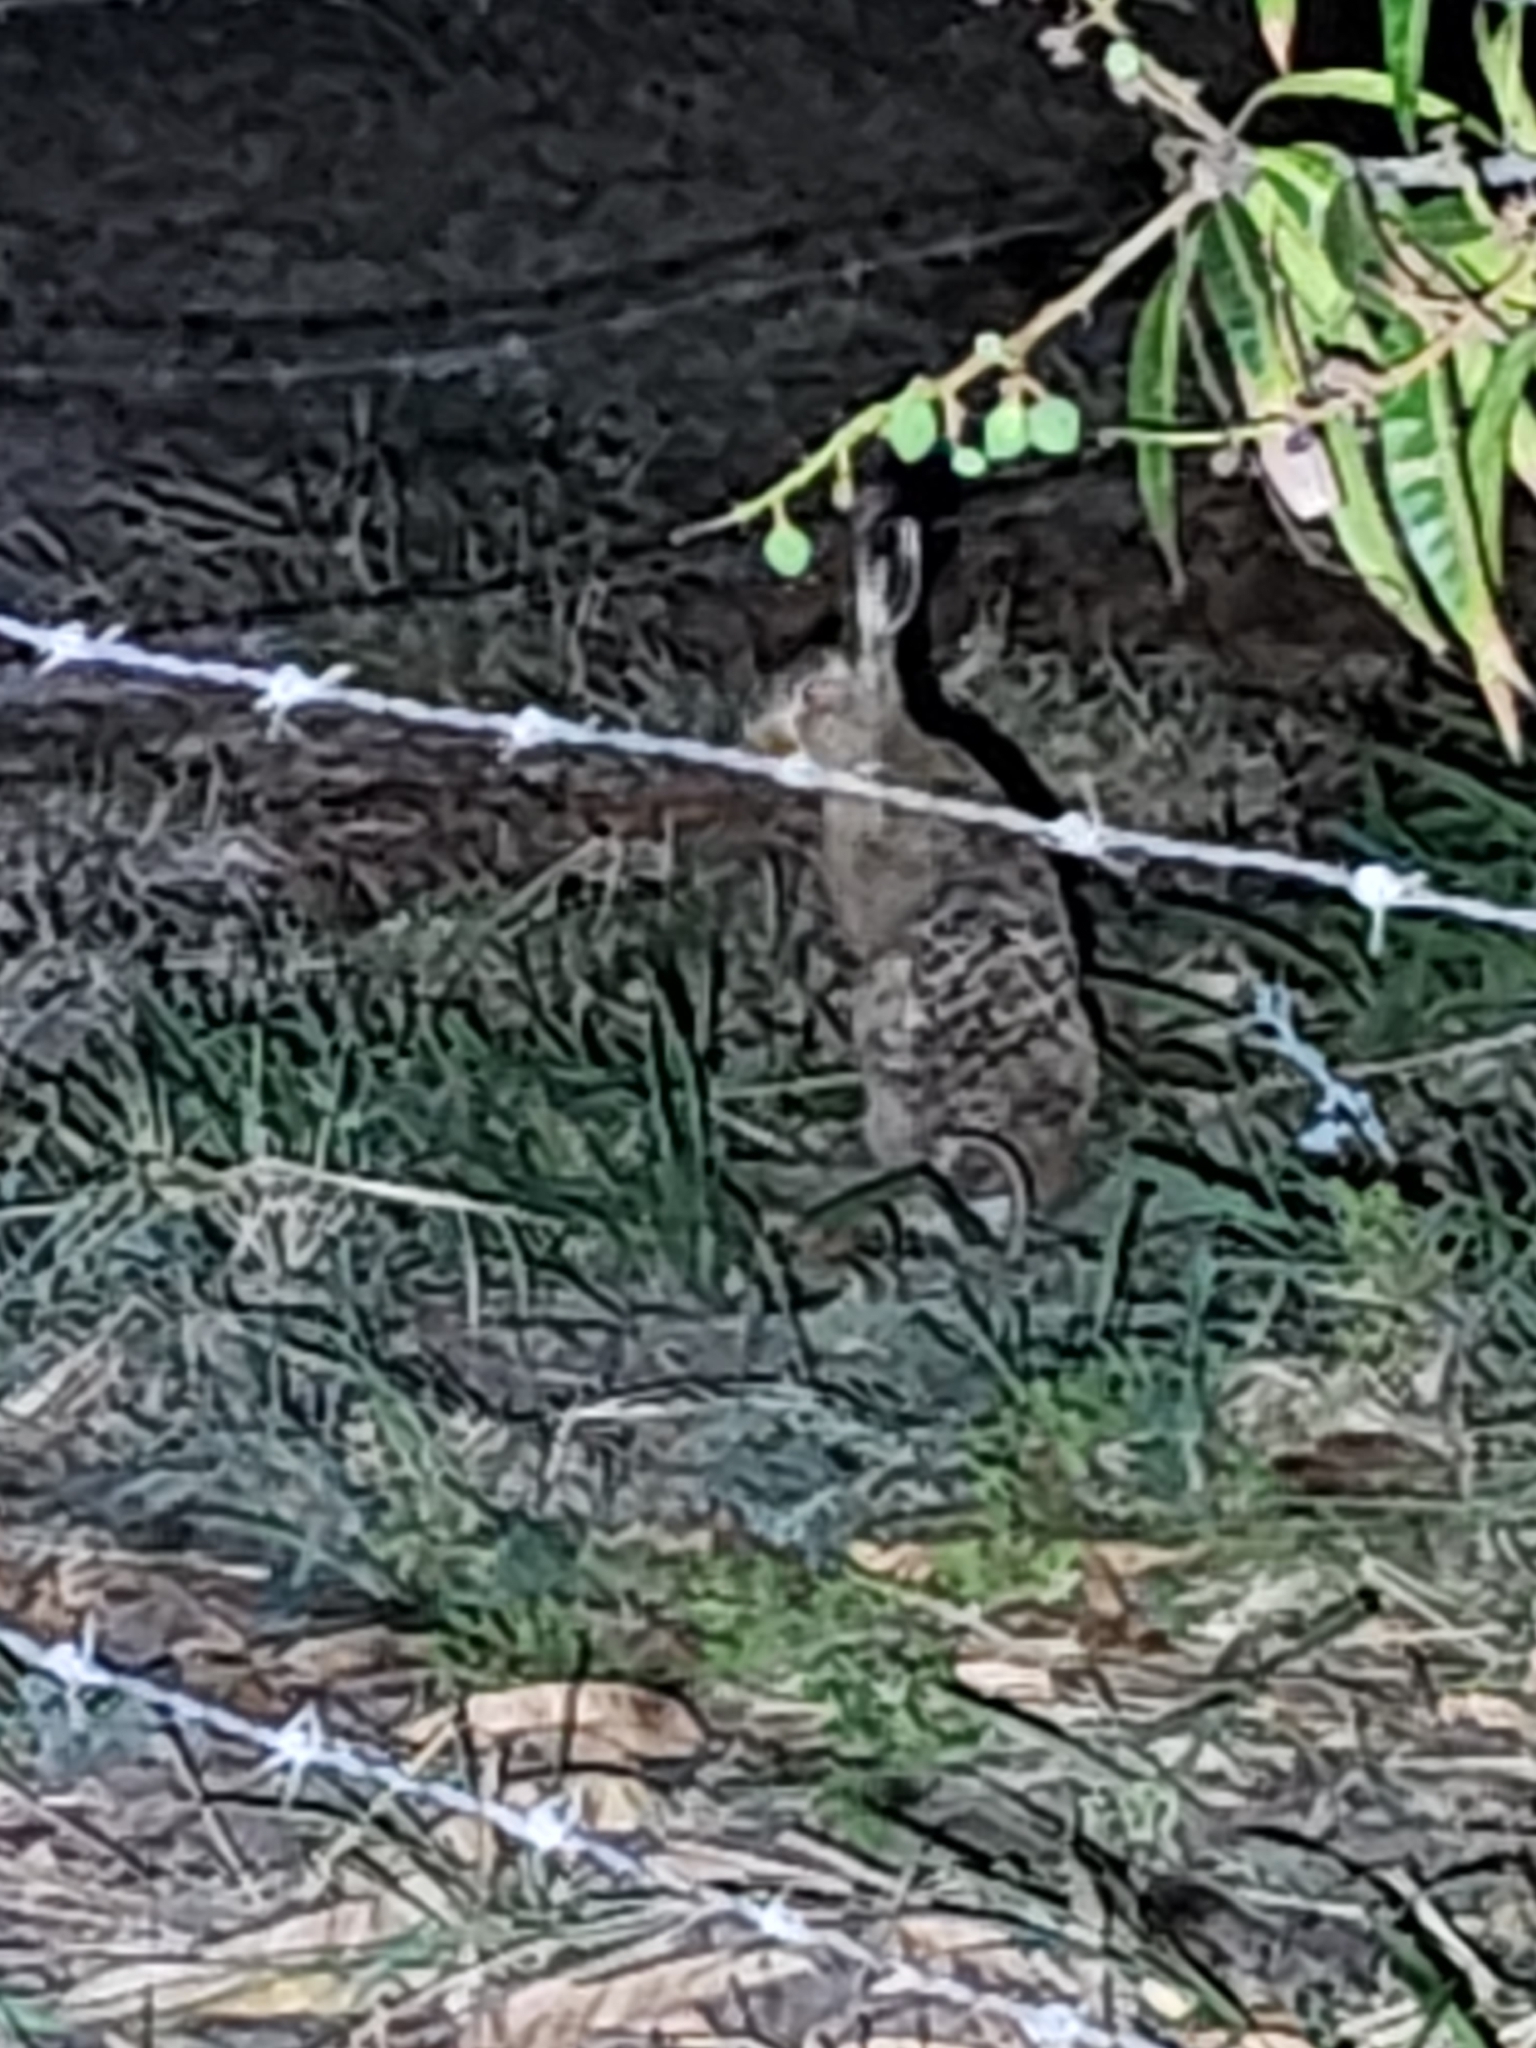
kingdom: Animalia
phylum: Chordata
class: Mammalia
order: Lagomorpha
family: Leporidae
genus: Lepus
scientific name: Lepus europaeus
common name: European hare
